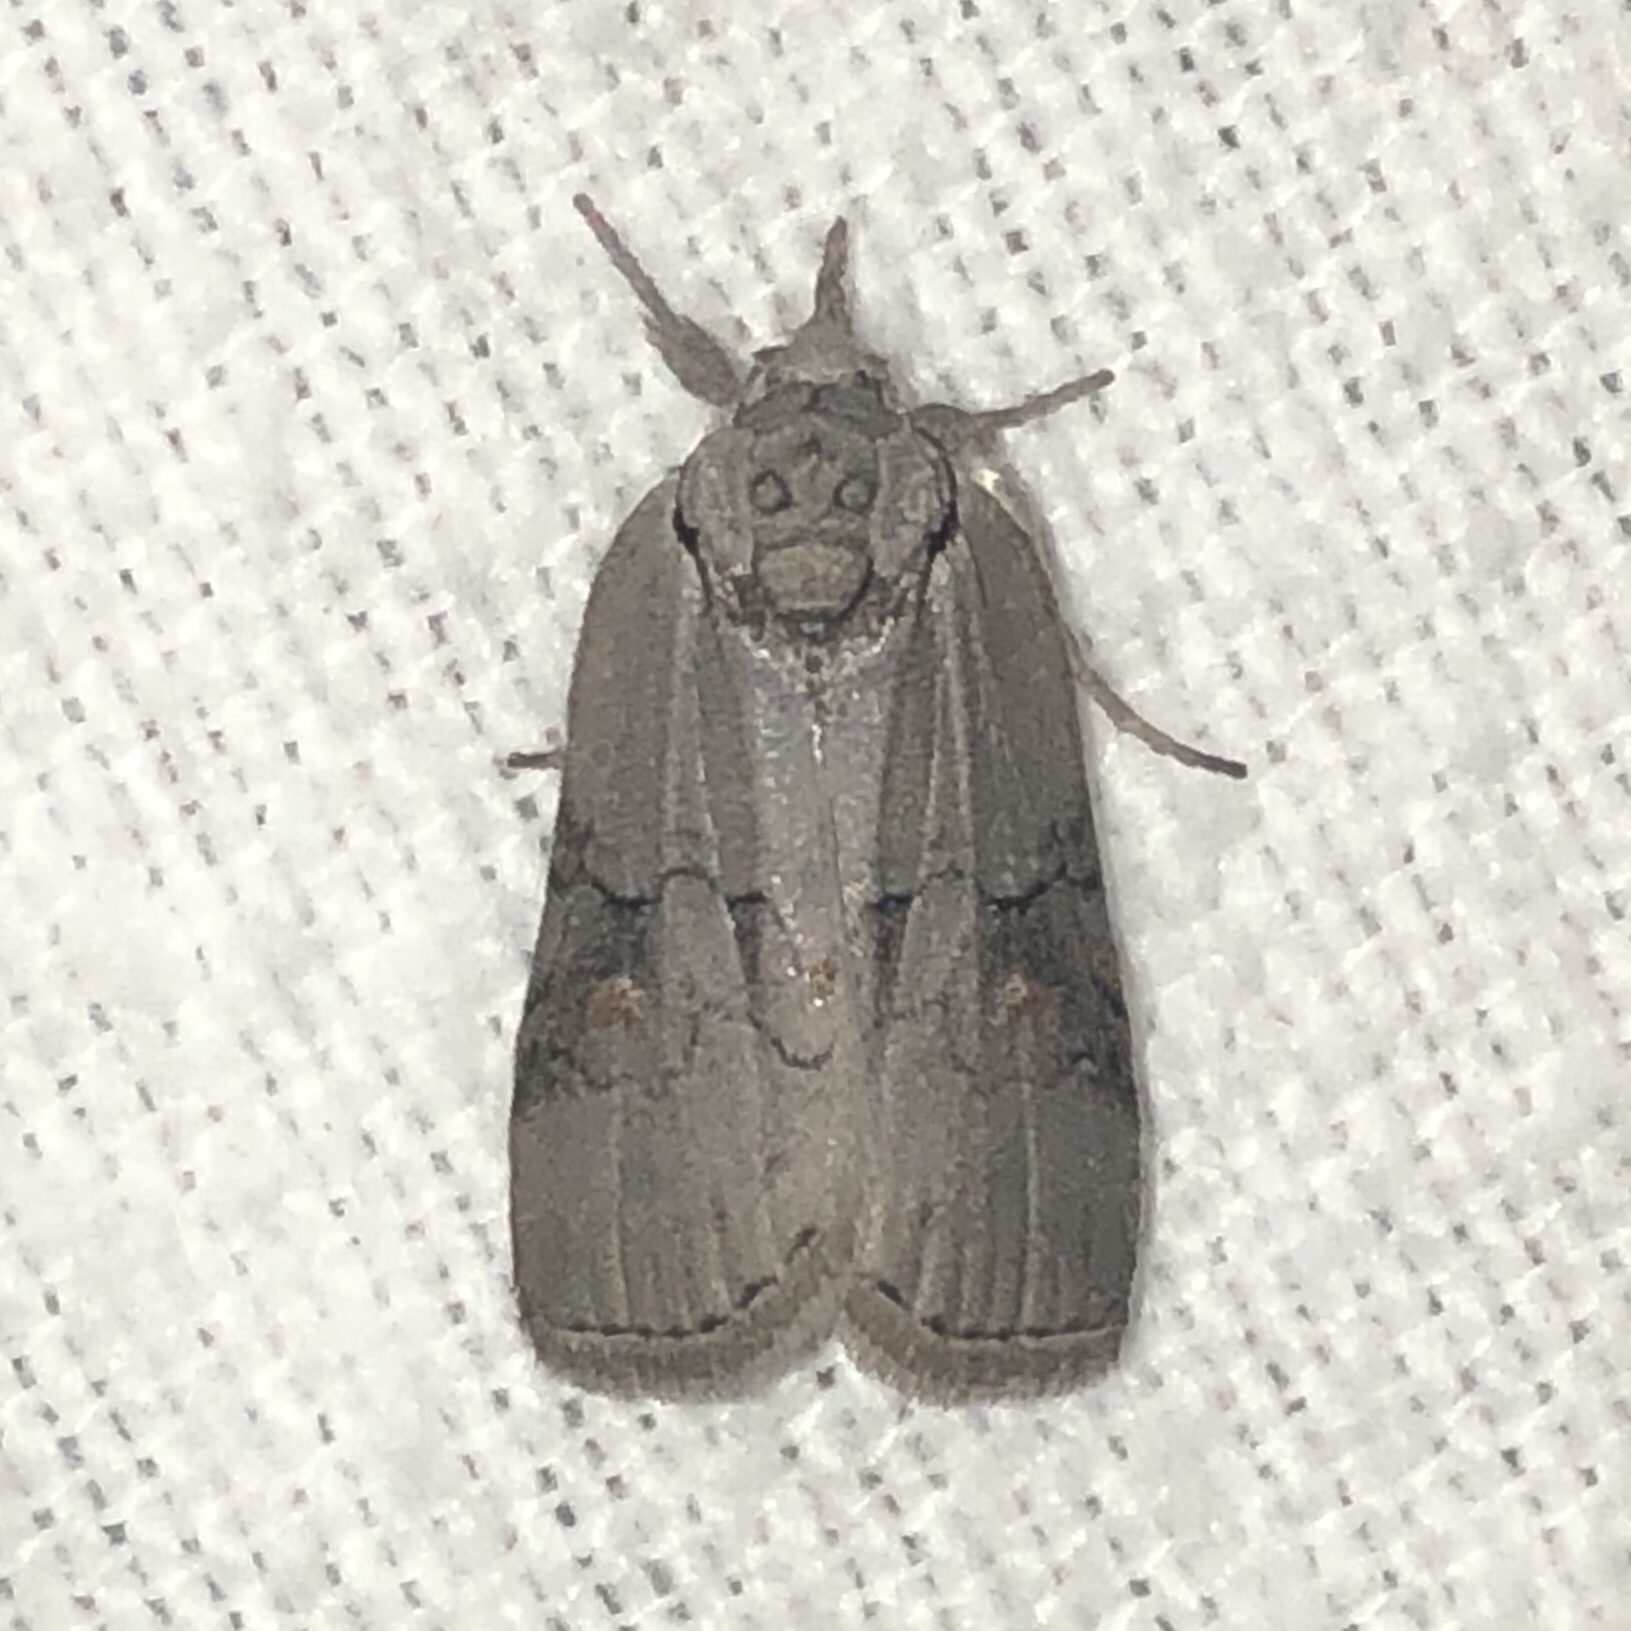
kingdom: Animalia
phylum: Arthropoda
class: Insecta
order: Lepidoptera
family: Nolidae
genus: Nycteola
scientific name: Nycteola cinereana
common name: Grey midget moth
